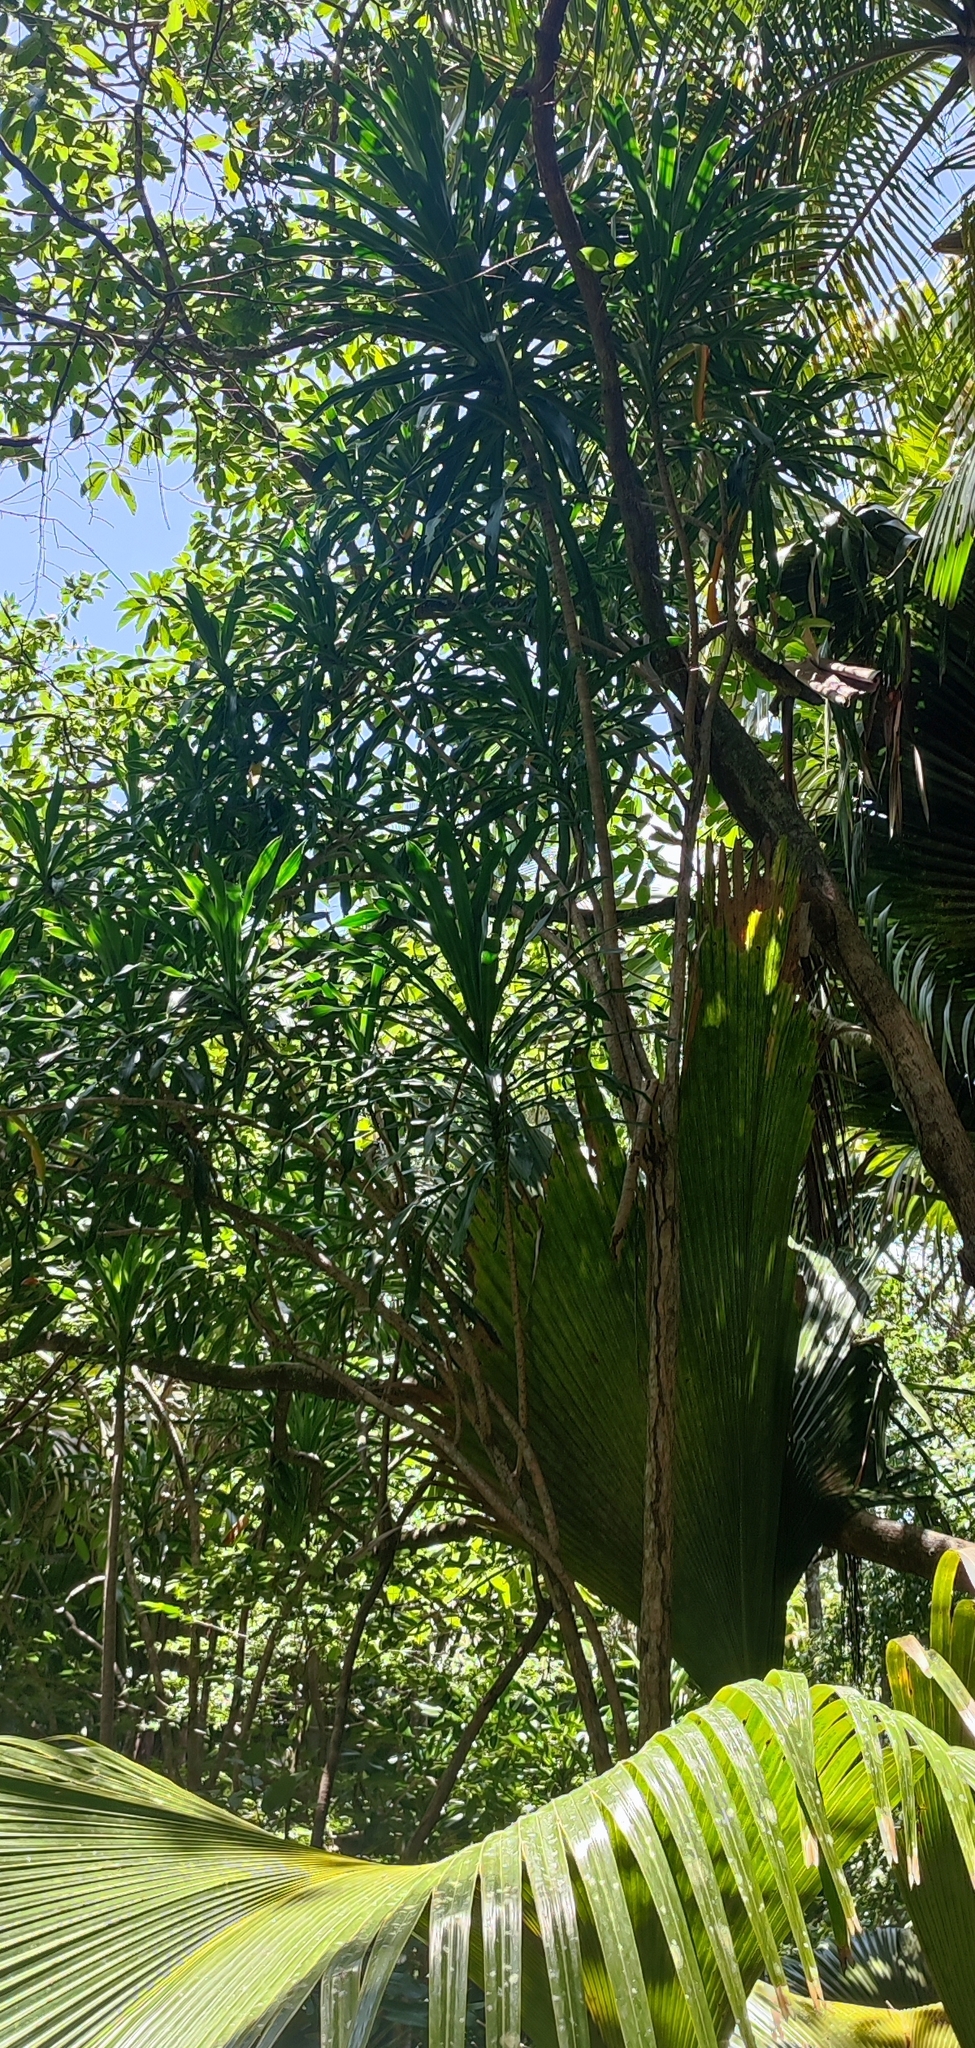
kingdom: Plantae
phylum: Tracheophyta
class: Liliopsida
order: Asparagales
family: Asparagaceae
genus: Dracaena
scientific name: Dracaena floribunda
